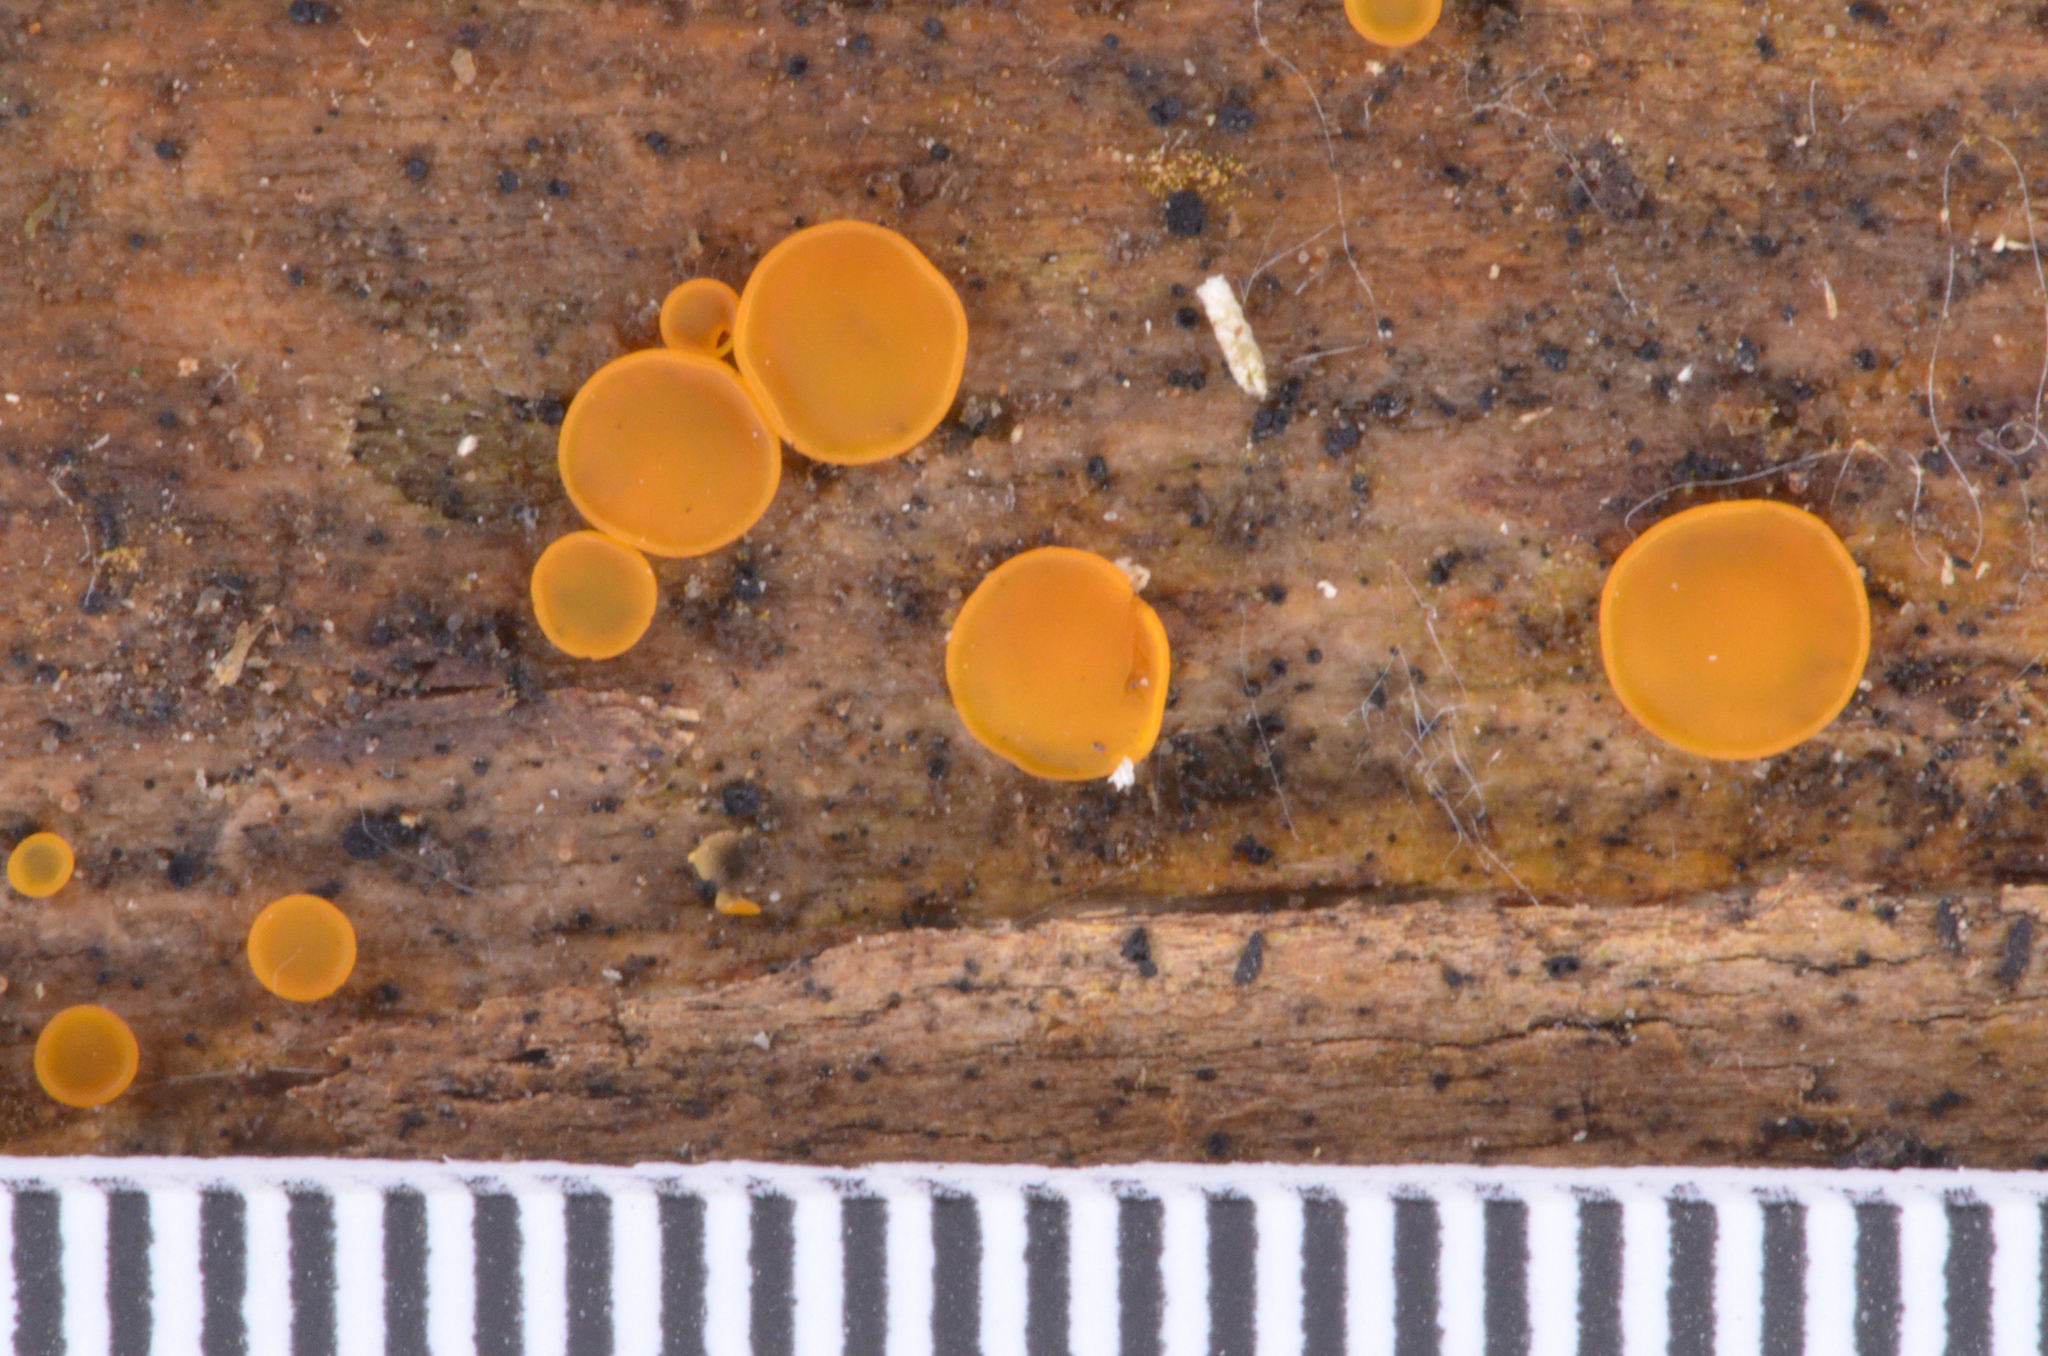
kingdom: Fungi
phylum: Ascomycota
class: Orbiliomycetes
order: Orbiliales
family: Orbiliaceae
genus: Orbilia
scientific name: Orbilia xanthostigma
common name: Common glasscup
